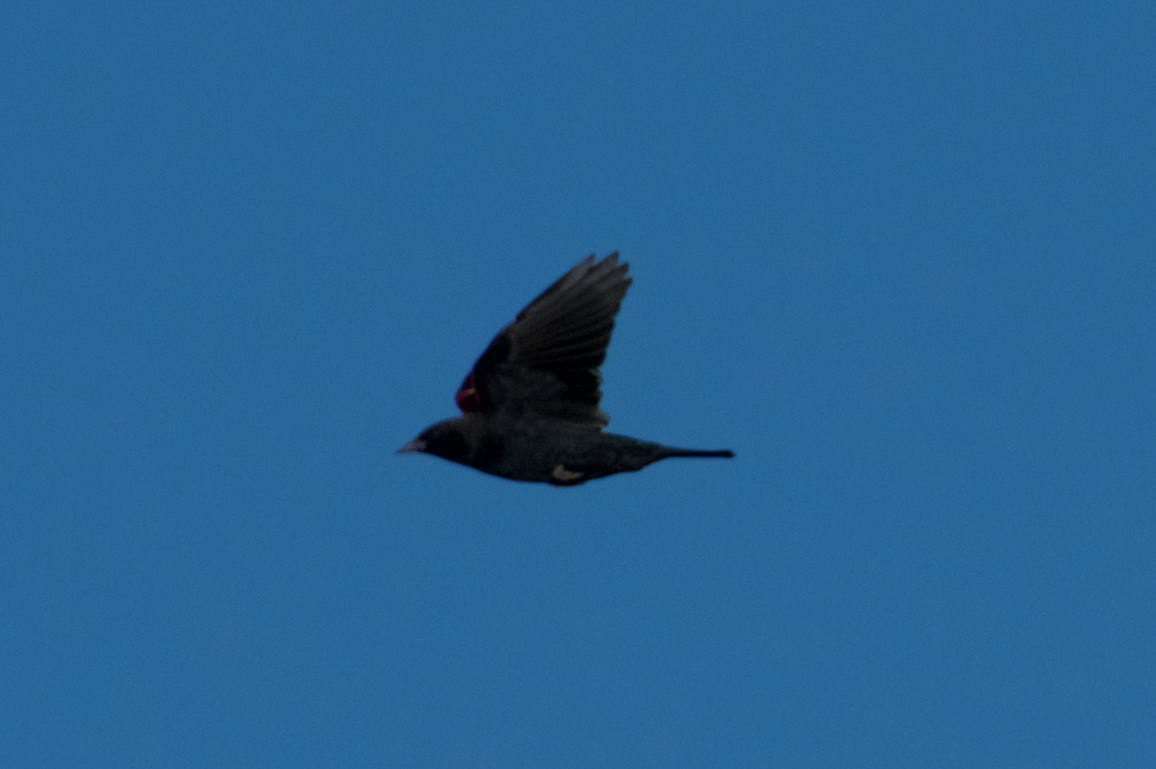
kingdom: Animalia
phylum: Chordata
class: Aves
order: Passeriformes
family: Icteridae
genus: Agelaius
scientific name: Agelaius tricolor
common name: Tricolored blackbird
